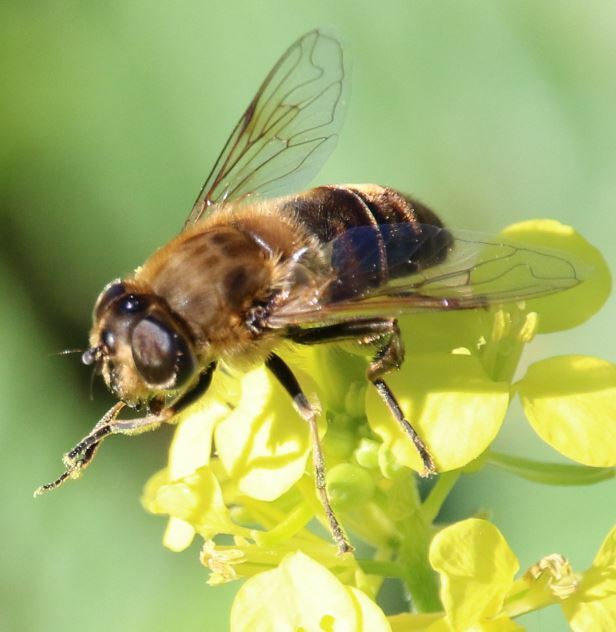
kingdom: Animalia
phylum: Arthropoda
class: Insecta
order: Diptera
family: Syrphidae
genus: Eristalis
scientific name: Eristalis tenax
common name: Drone fly
